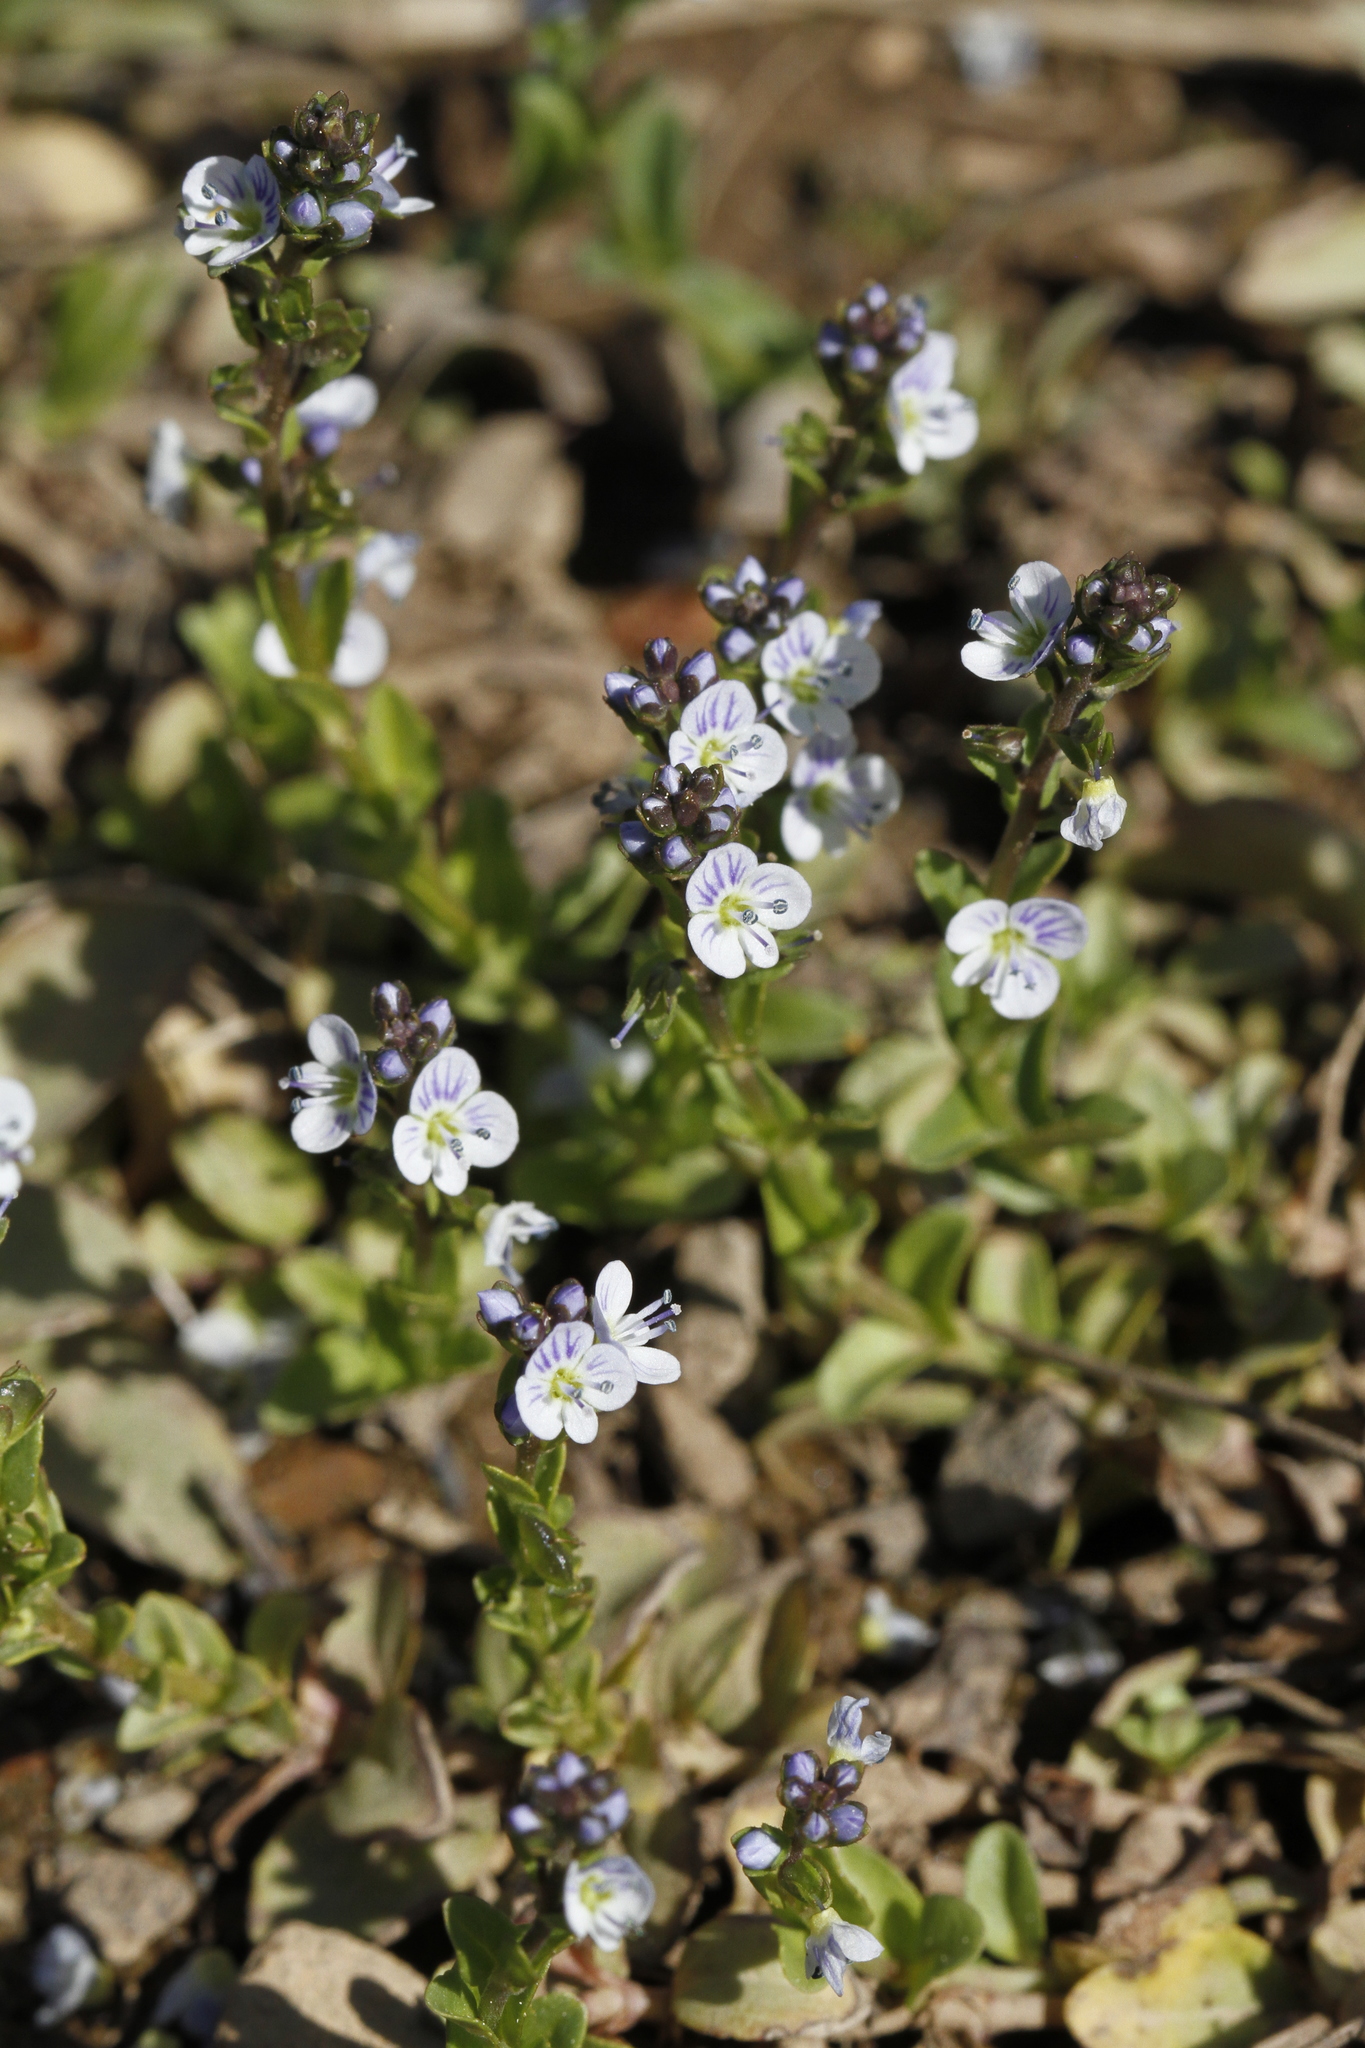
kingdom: Plantae
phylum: Tracheophyta
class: Magnoliopsida
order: Lamiales
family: Plantaginaceae
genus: Veronica
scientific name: Veronica serpyllifolia
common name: Thyme-leaved speedwell
